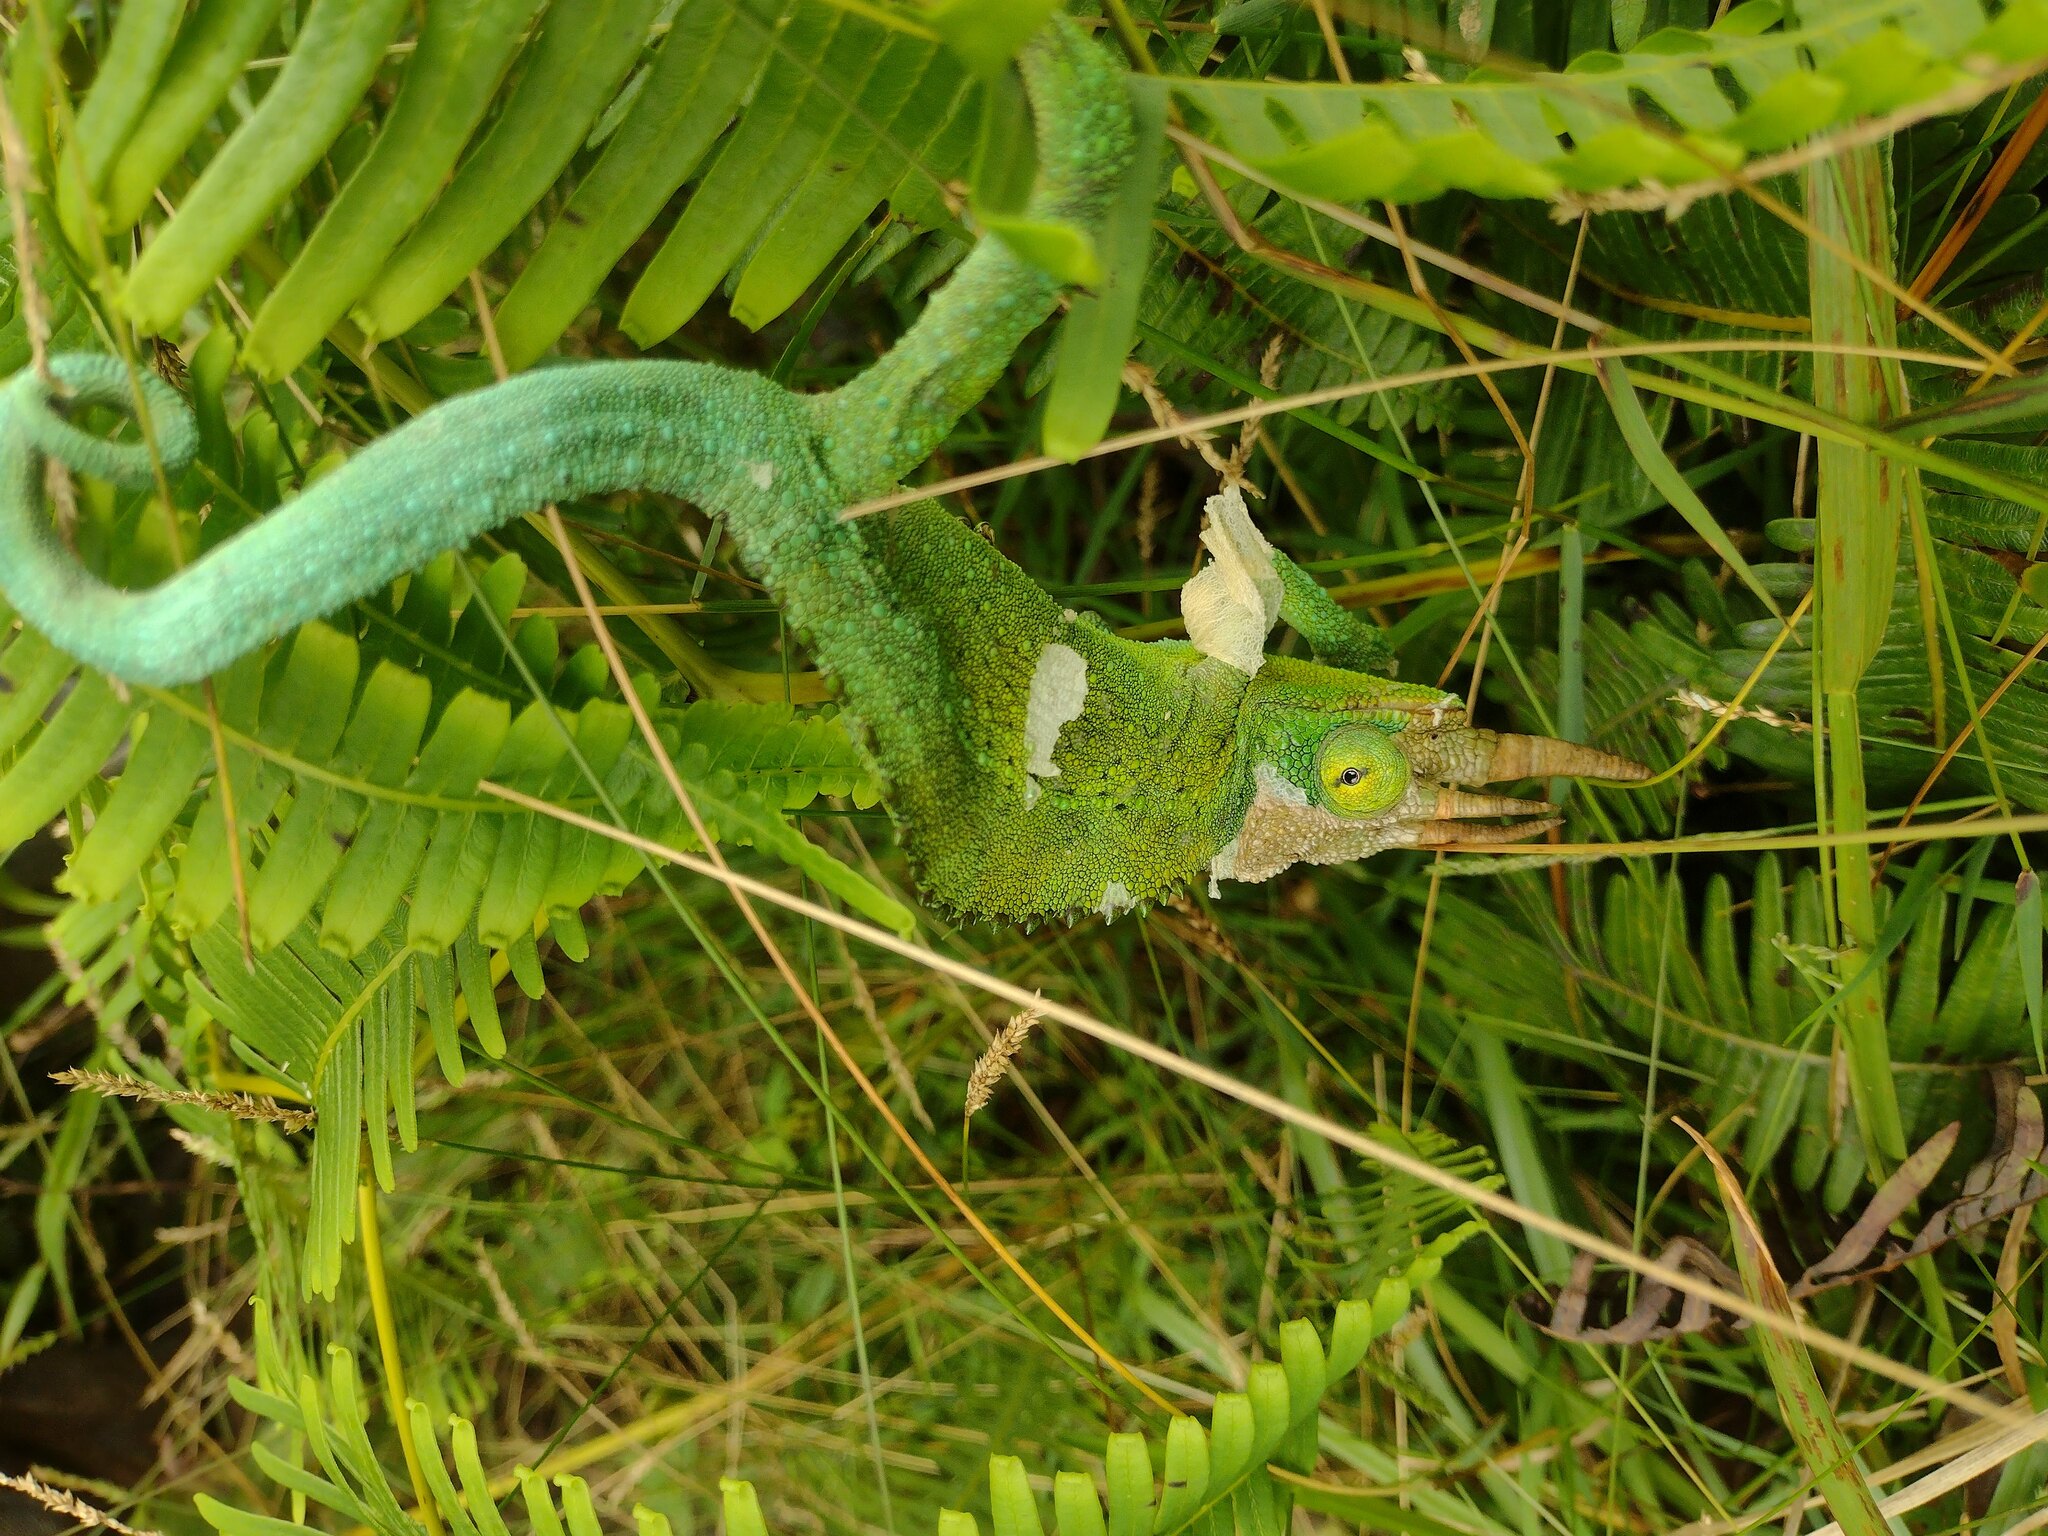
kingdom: Animalia
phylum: Chordata
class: Squamata
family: Chamaeleonidae
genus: Trioceros
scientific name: Trioceros jacksonii
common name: Jackson's chameleon
